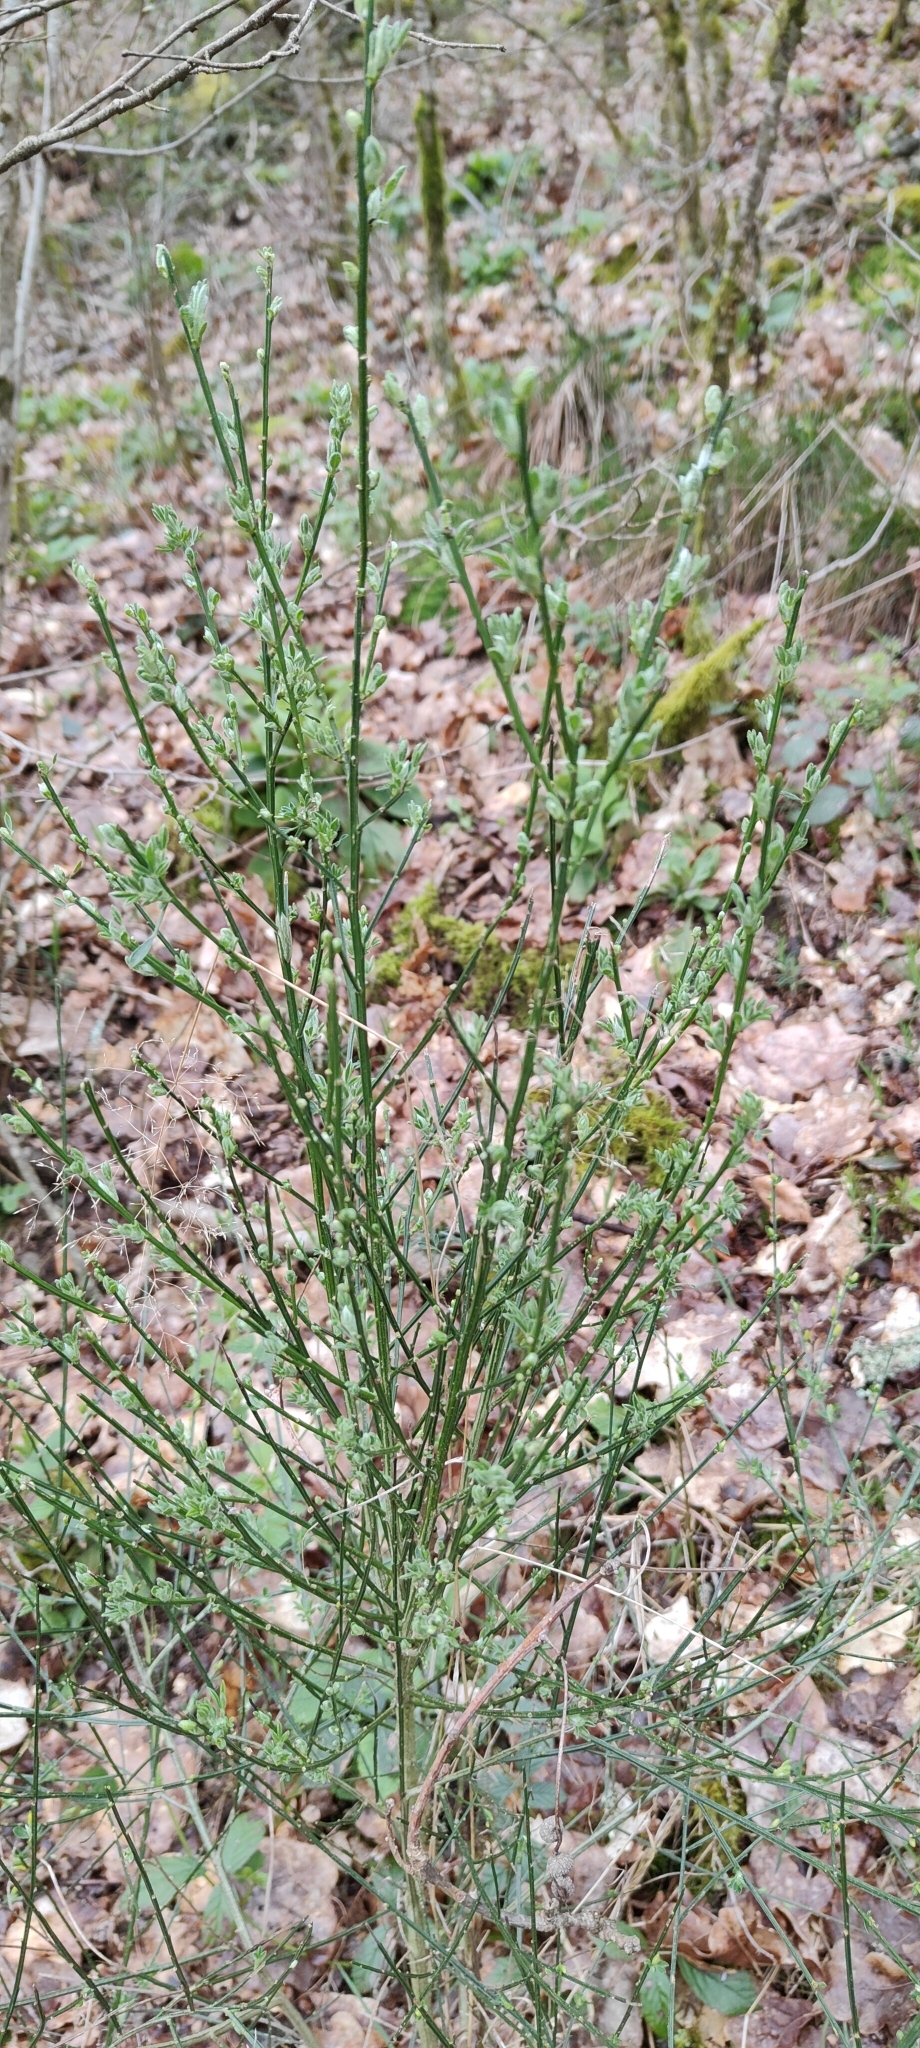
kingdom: Plantae
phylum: Tracheophyta
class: Magnoliopsida
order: Fabales
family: Fabaceae
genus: Cytisus
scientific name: Cytisus scoparius
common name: Scotch broom
